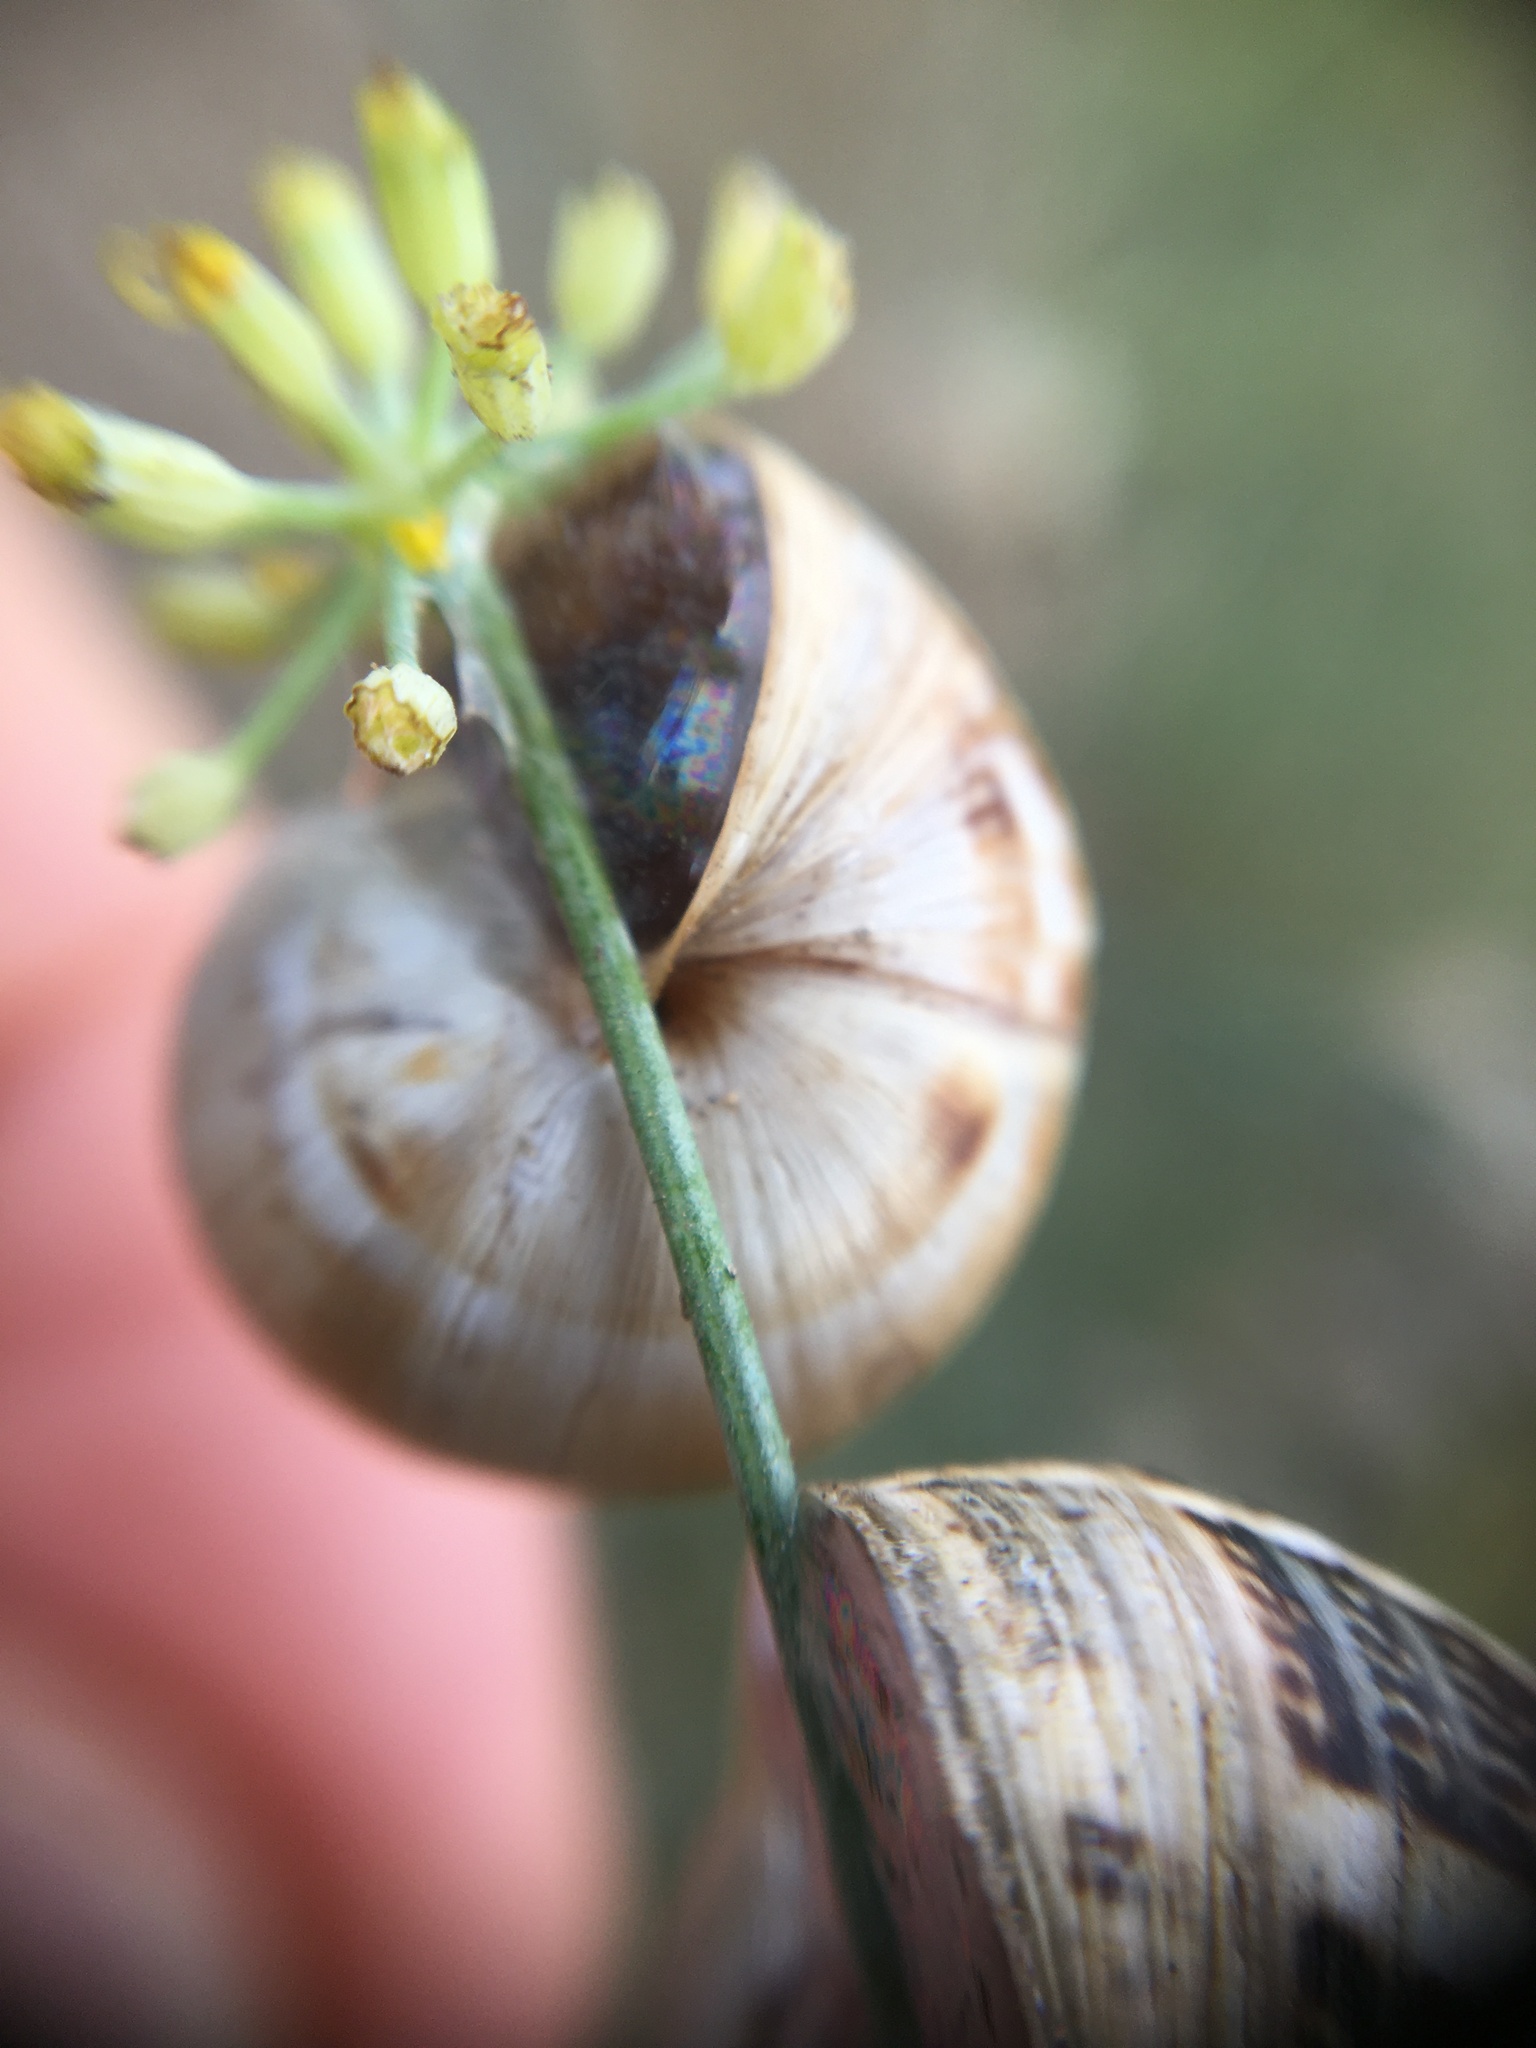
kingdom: Animalia
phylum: Mollusca
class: Gastropoda
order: Stylommatophora
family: Helicidae
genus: Theba
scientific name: Theba pisana
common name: White snail
